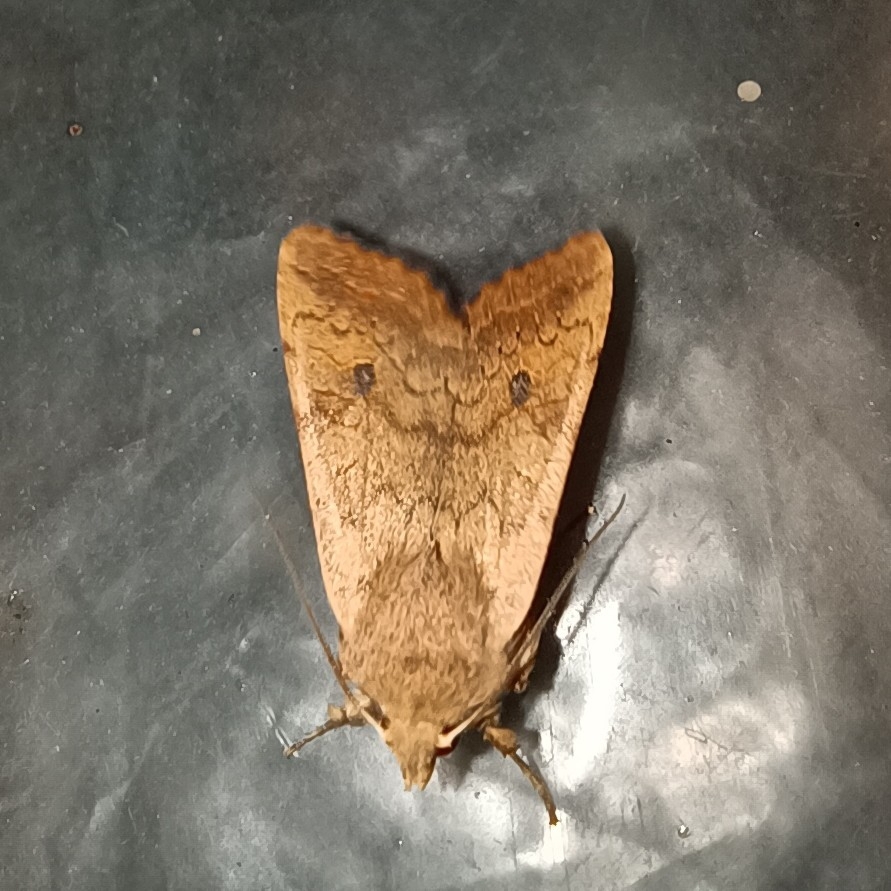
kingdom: Animalia
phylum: Arthropoda
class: Insecta
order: Lepidoptera
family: Noctuidae
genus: Sunira
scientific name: Sunira circellaris
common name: Brick
